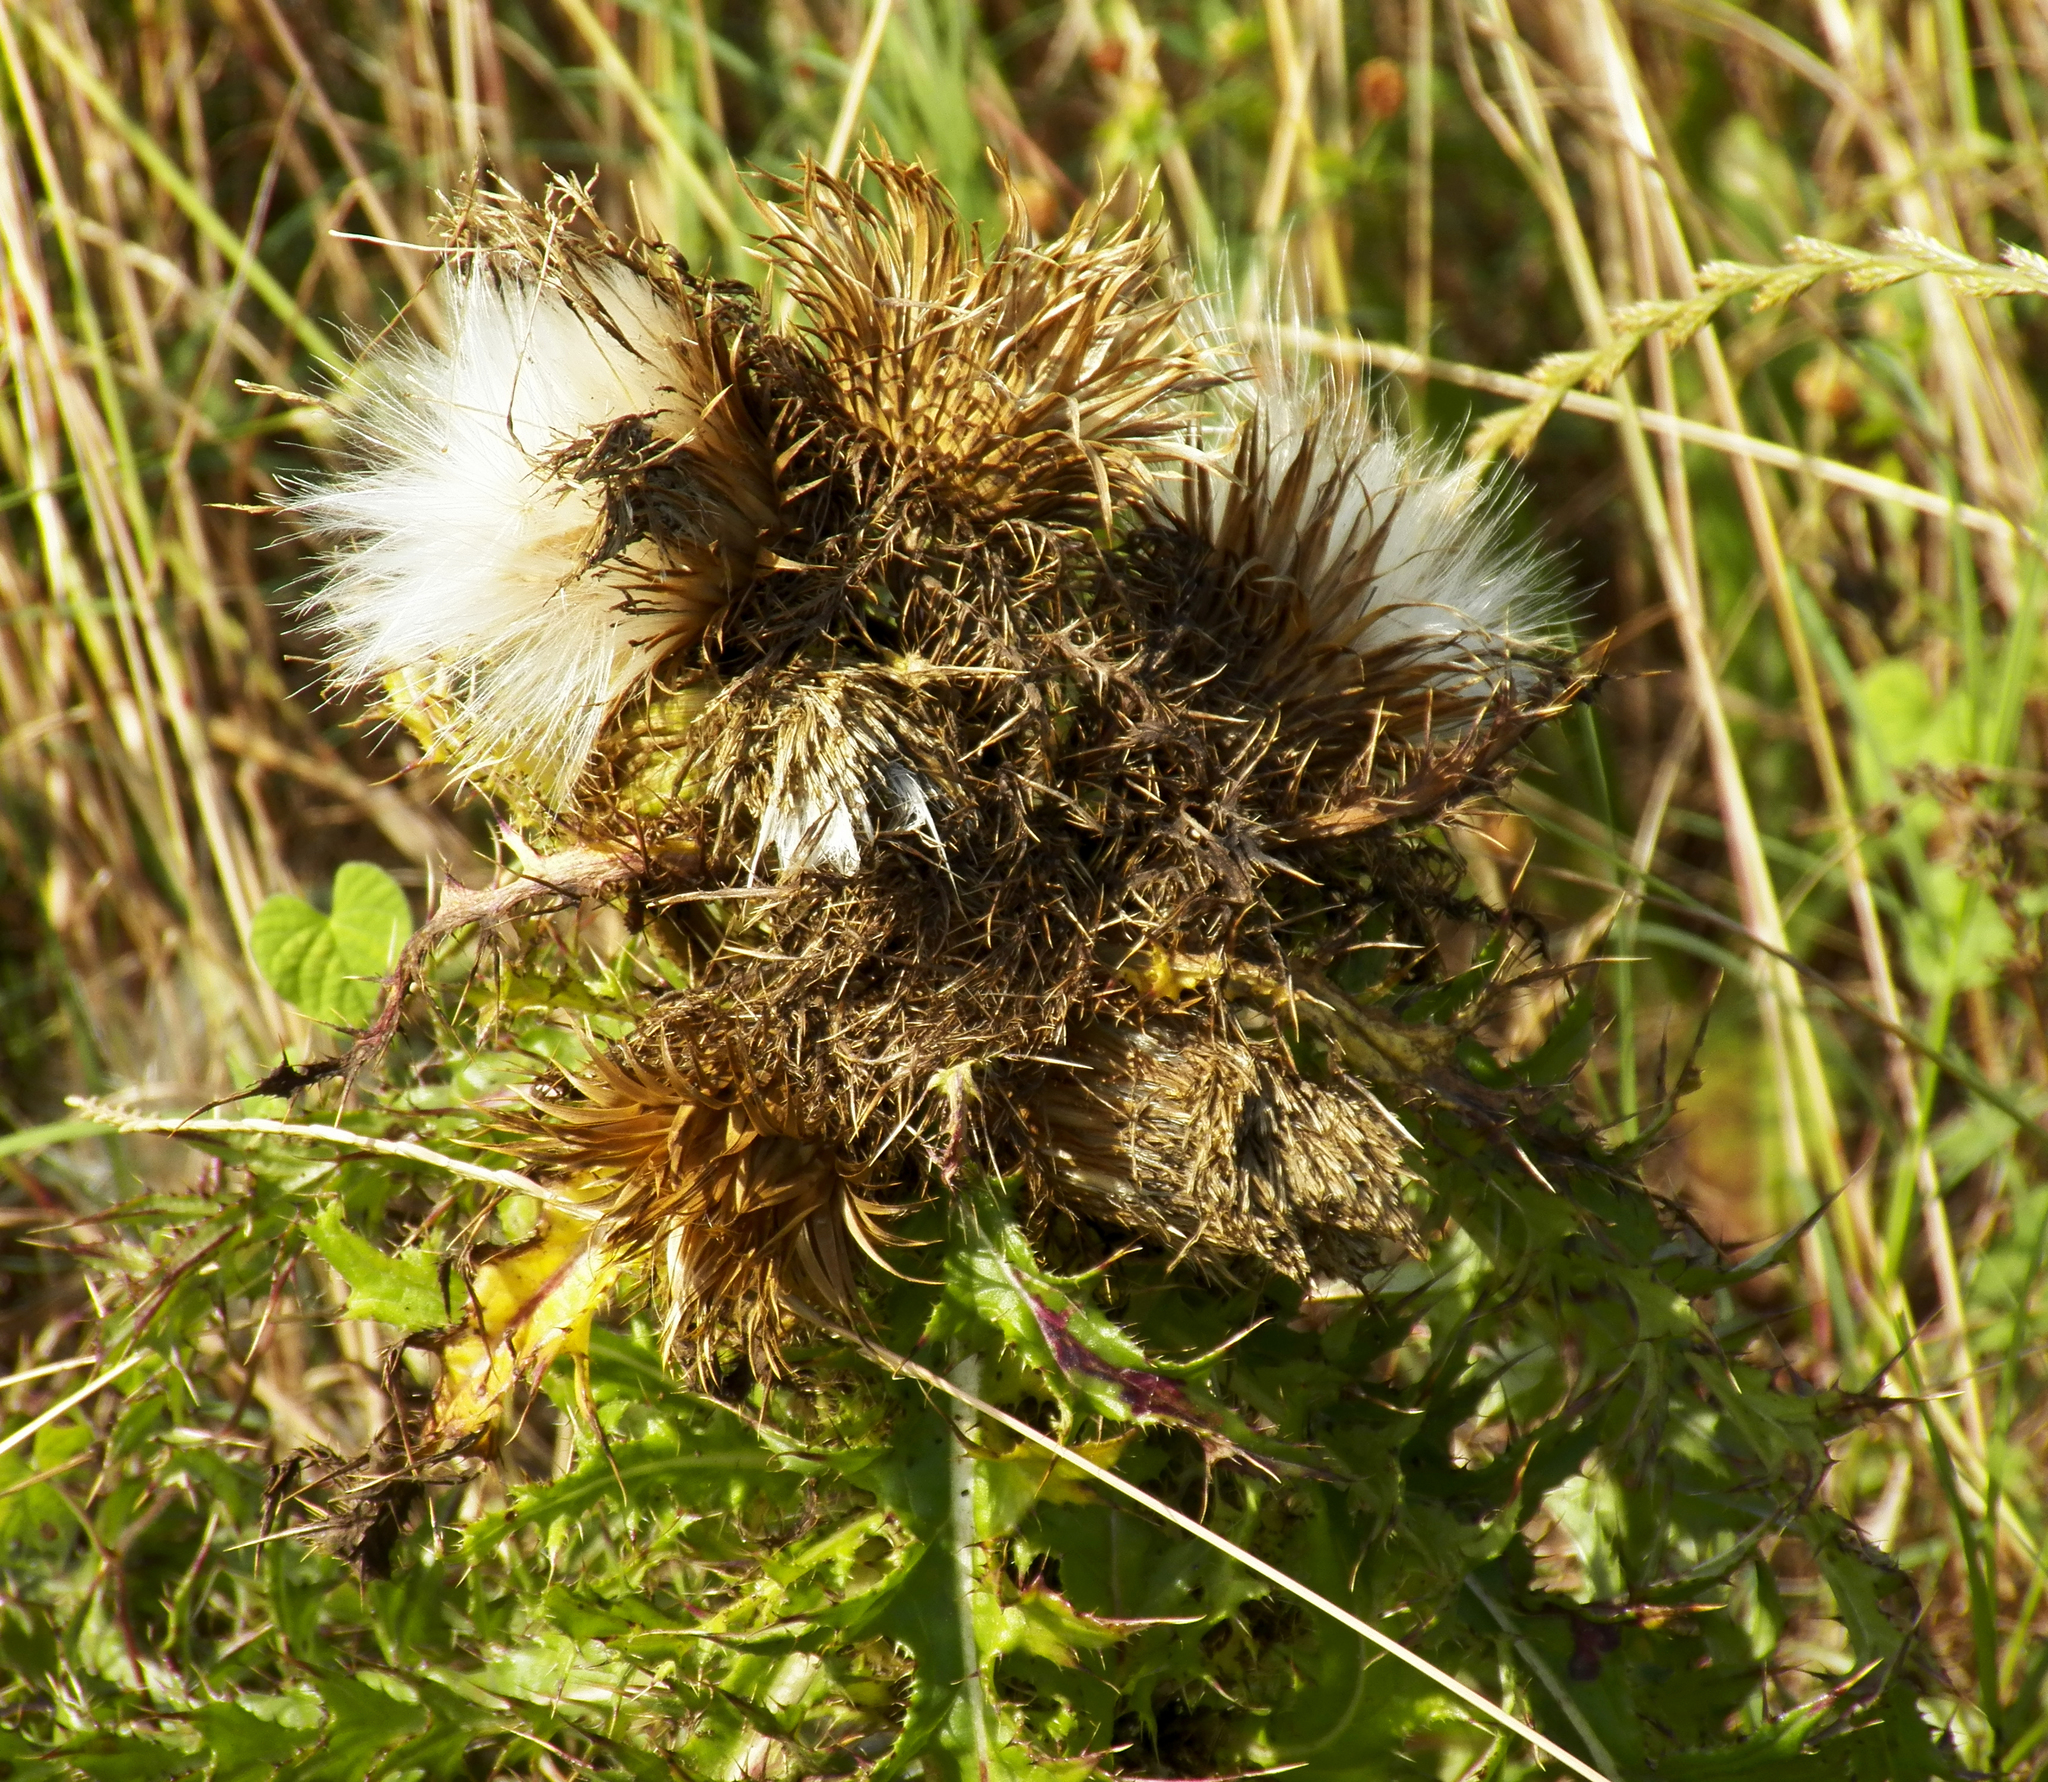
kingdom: Plantae
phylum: Tracheophyta
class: Magnoliopsida
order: Asterales
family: Asteraceae
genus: Cirsium
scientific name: Cirsium horridulum
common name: Bristly thistle
